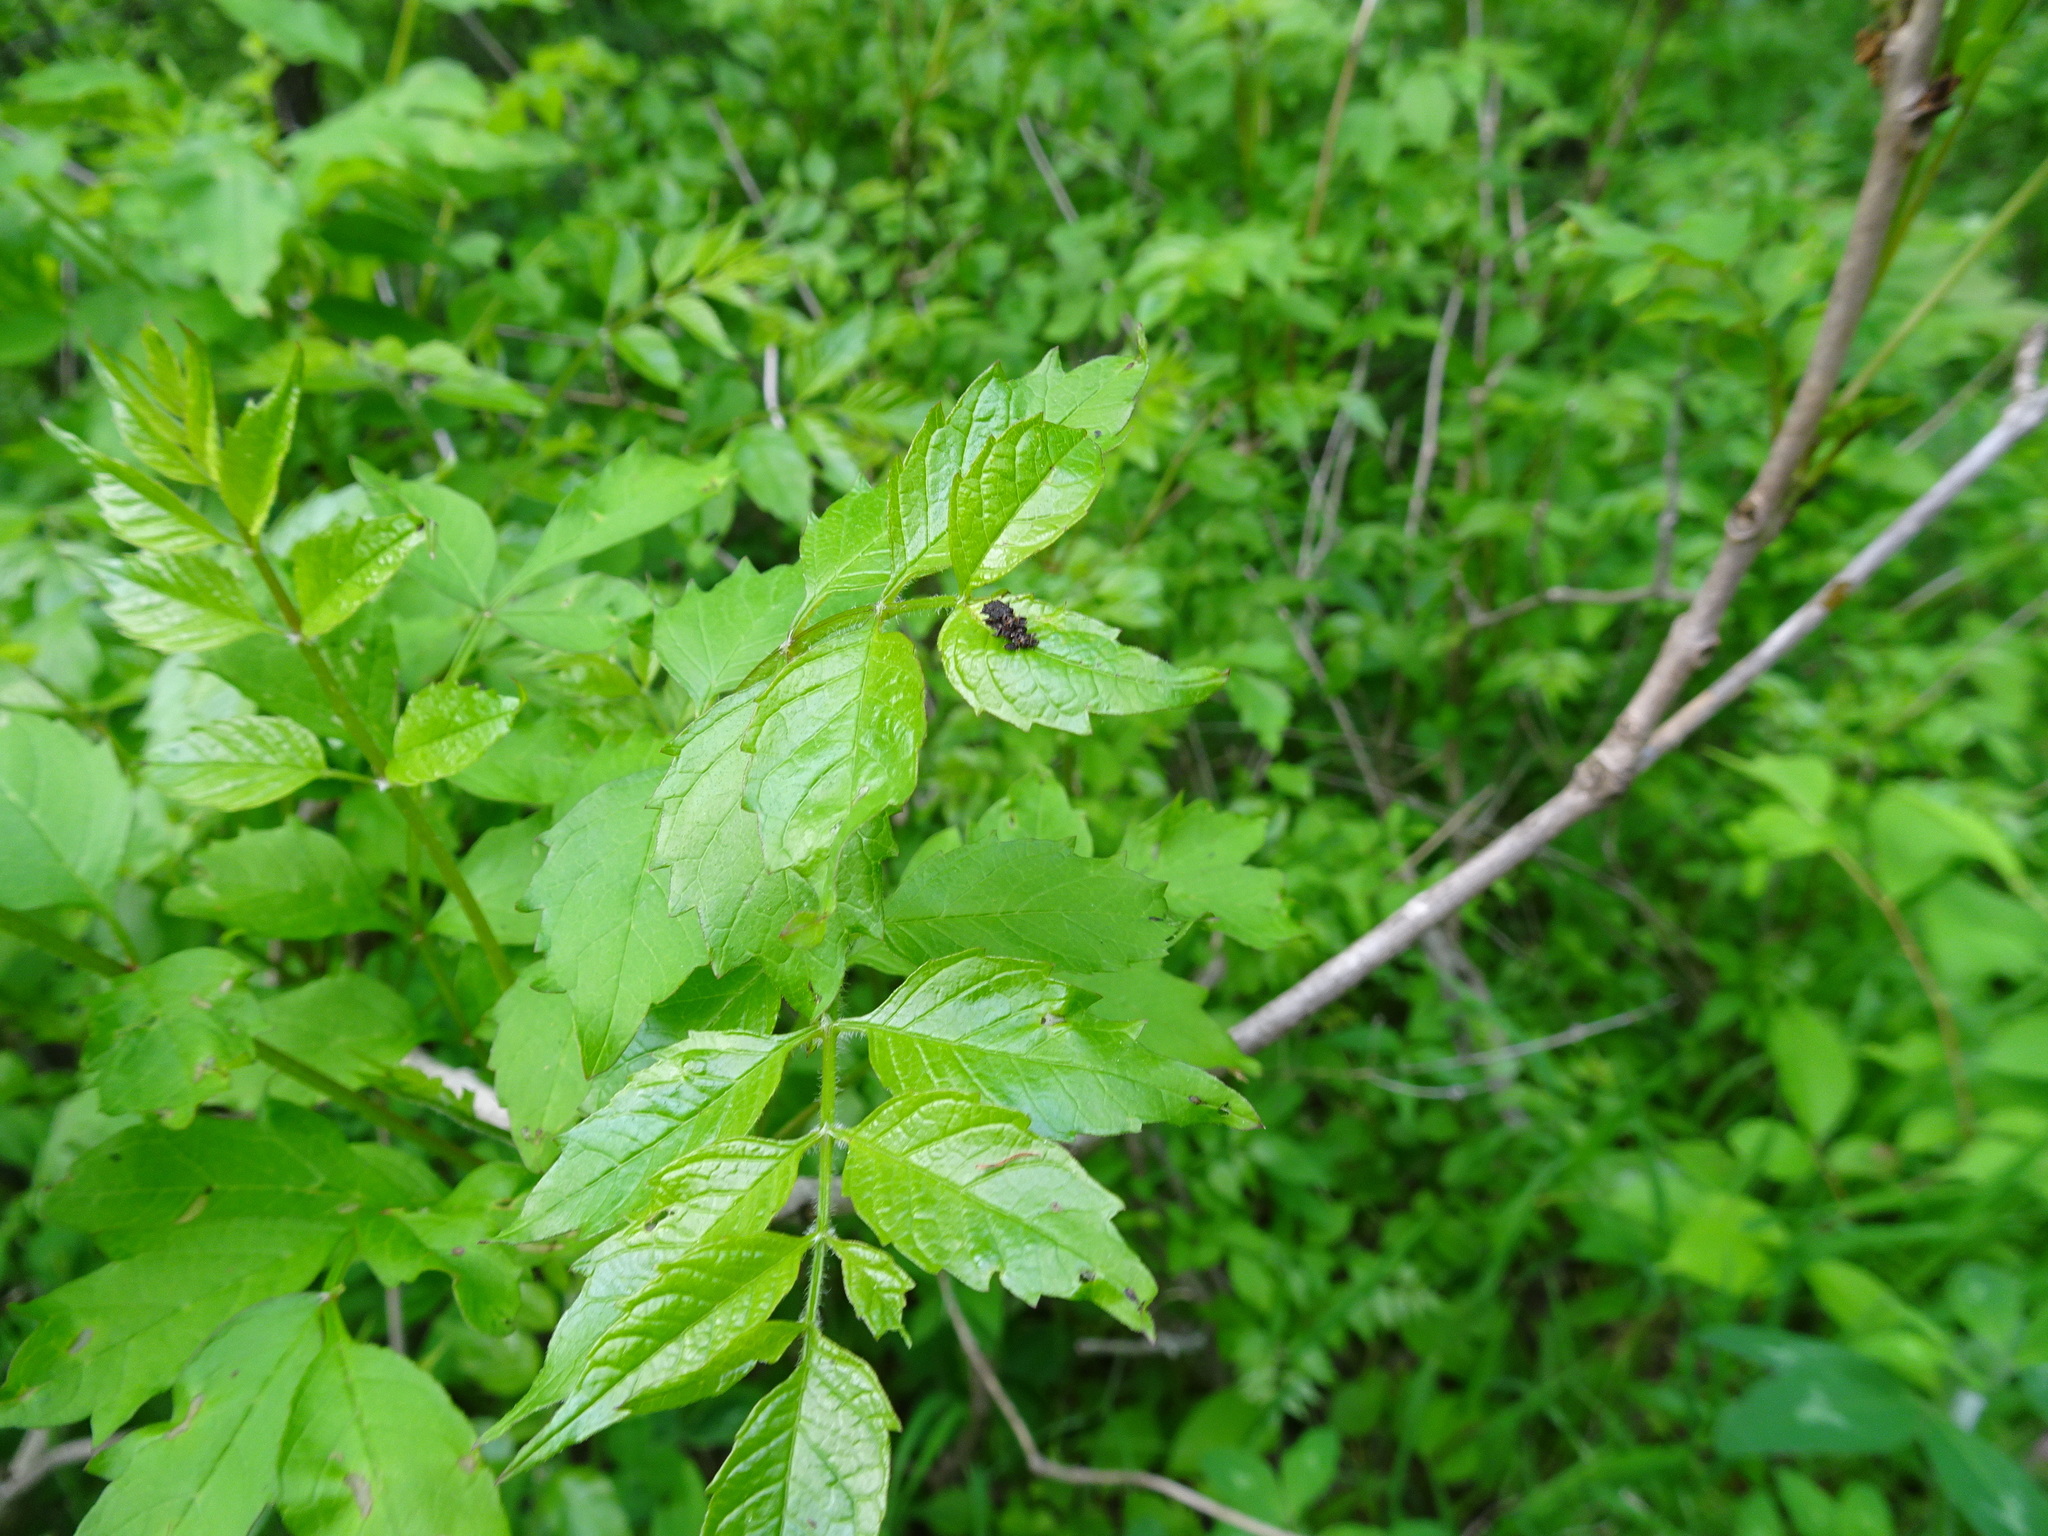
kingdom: Plantae
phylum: Tracheophyta
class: Magnoliopsida
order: Lamiales
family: Bignoniaceae
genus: Campsis
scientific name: Campsis radicans
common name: Trumpet-creeper
